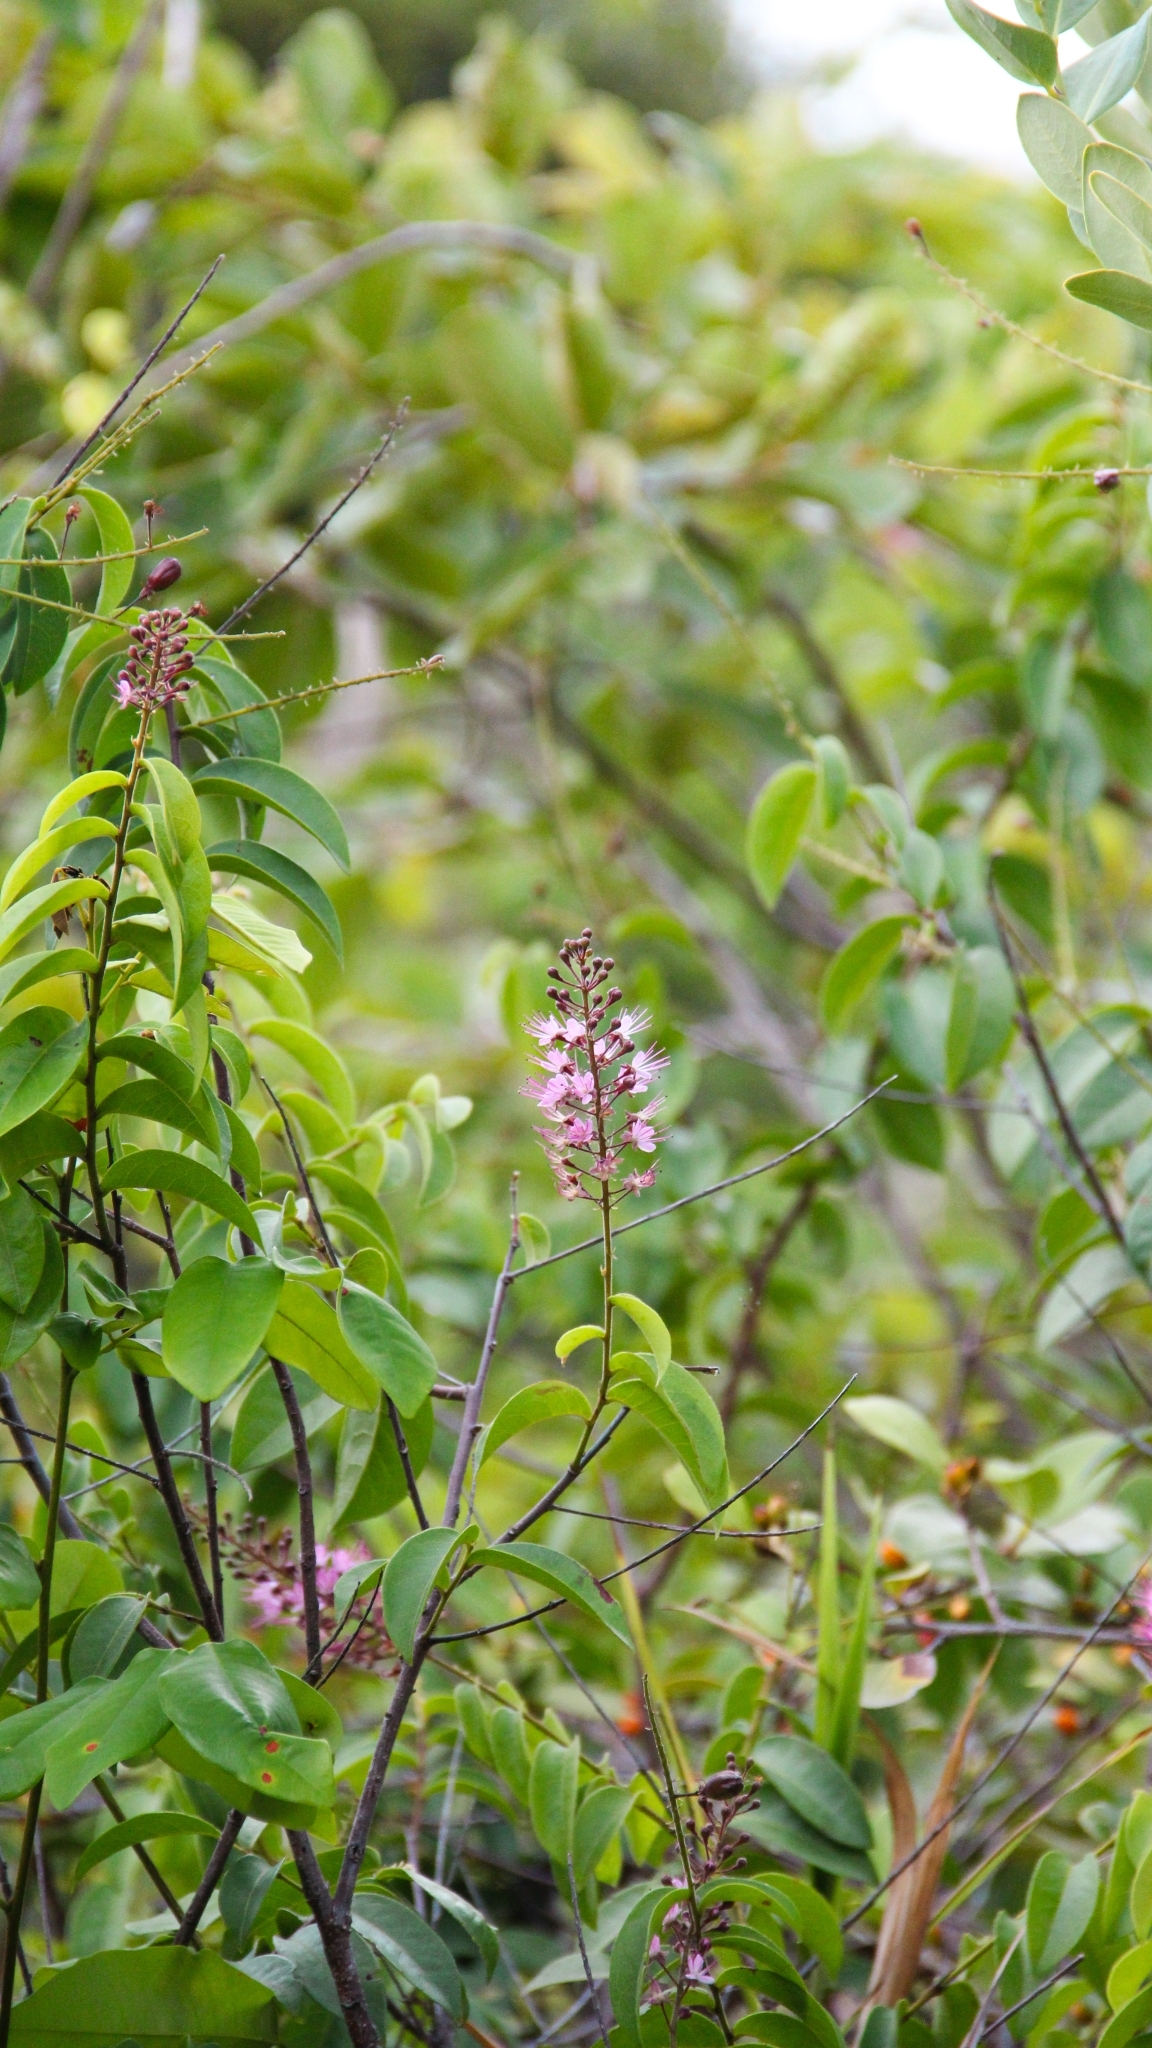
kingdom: Plantae
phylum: Tracheophyta
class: Magnoliopsida
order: Malpighiales
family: Chrysobalanaceae
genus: Hirtella
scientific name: Hirtella racemosa
